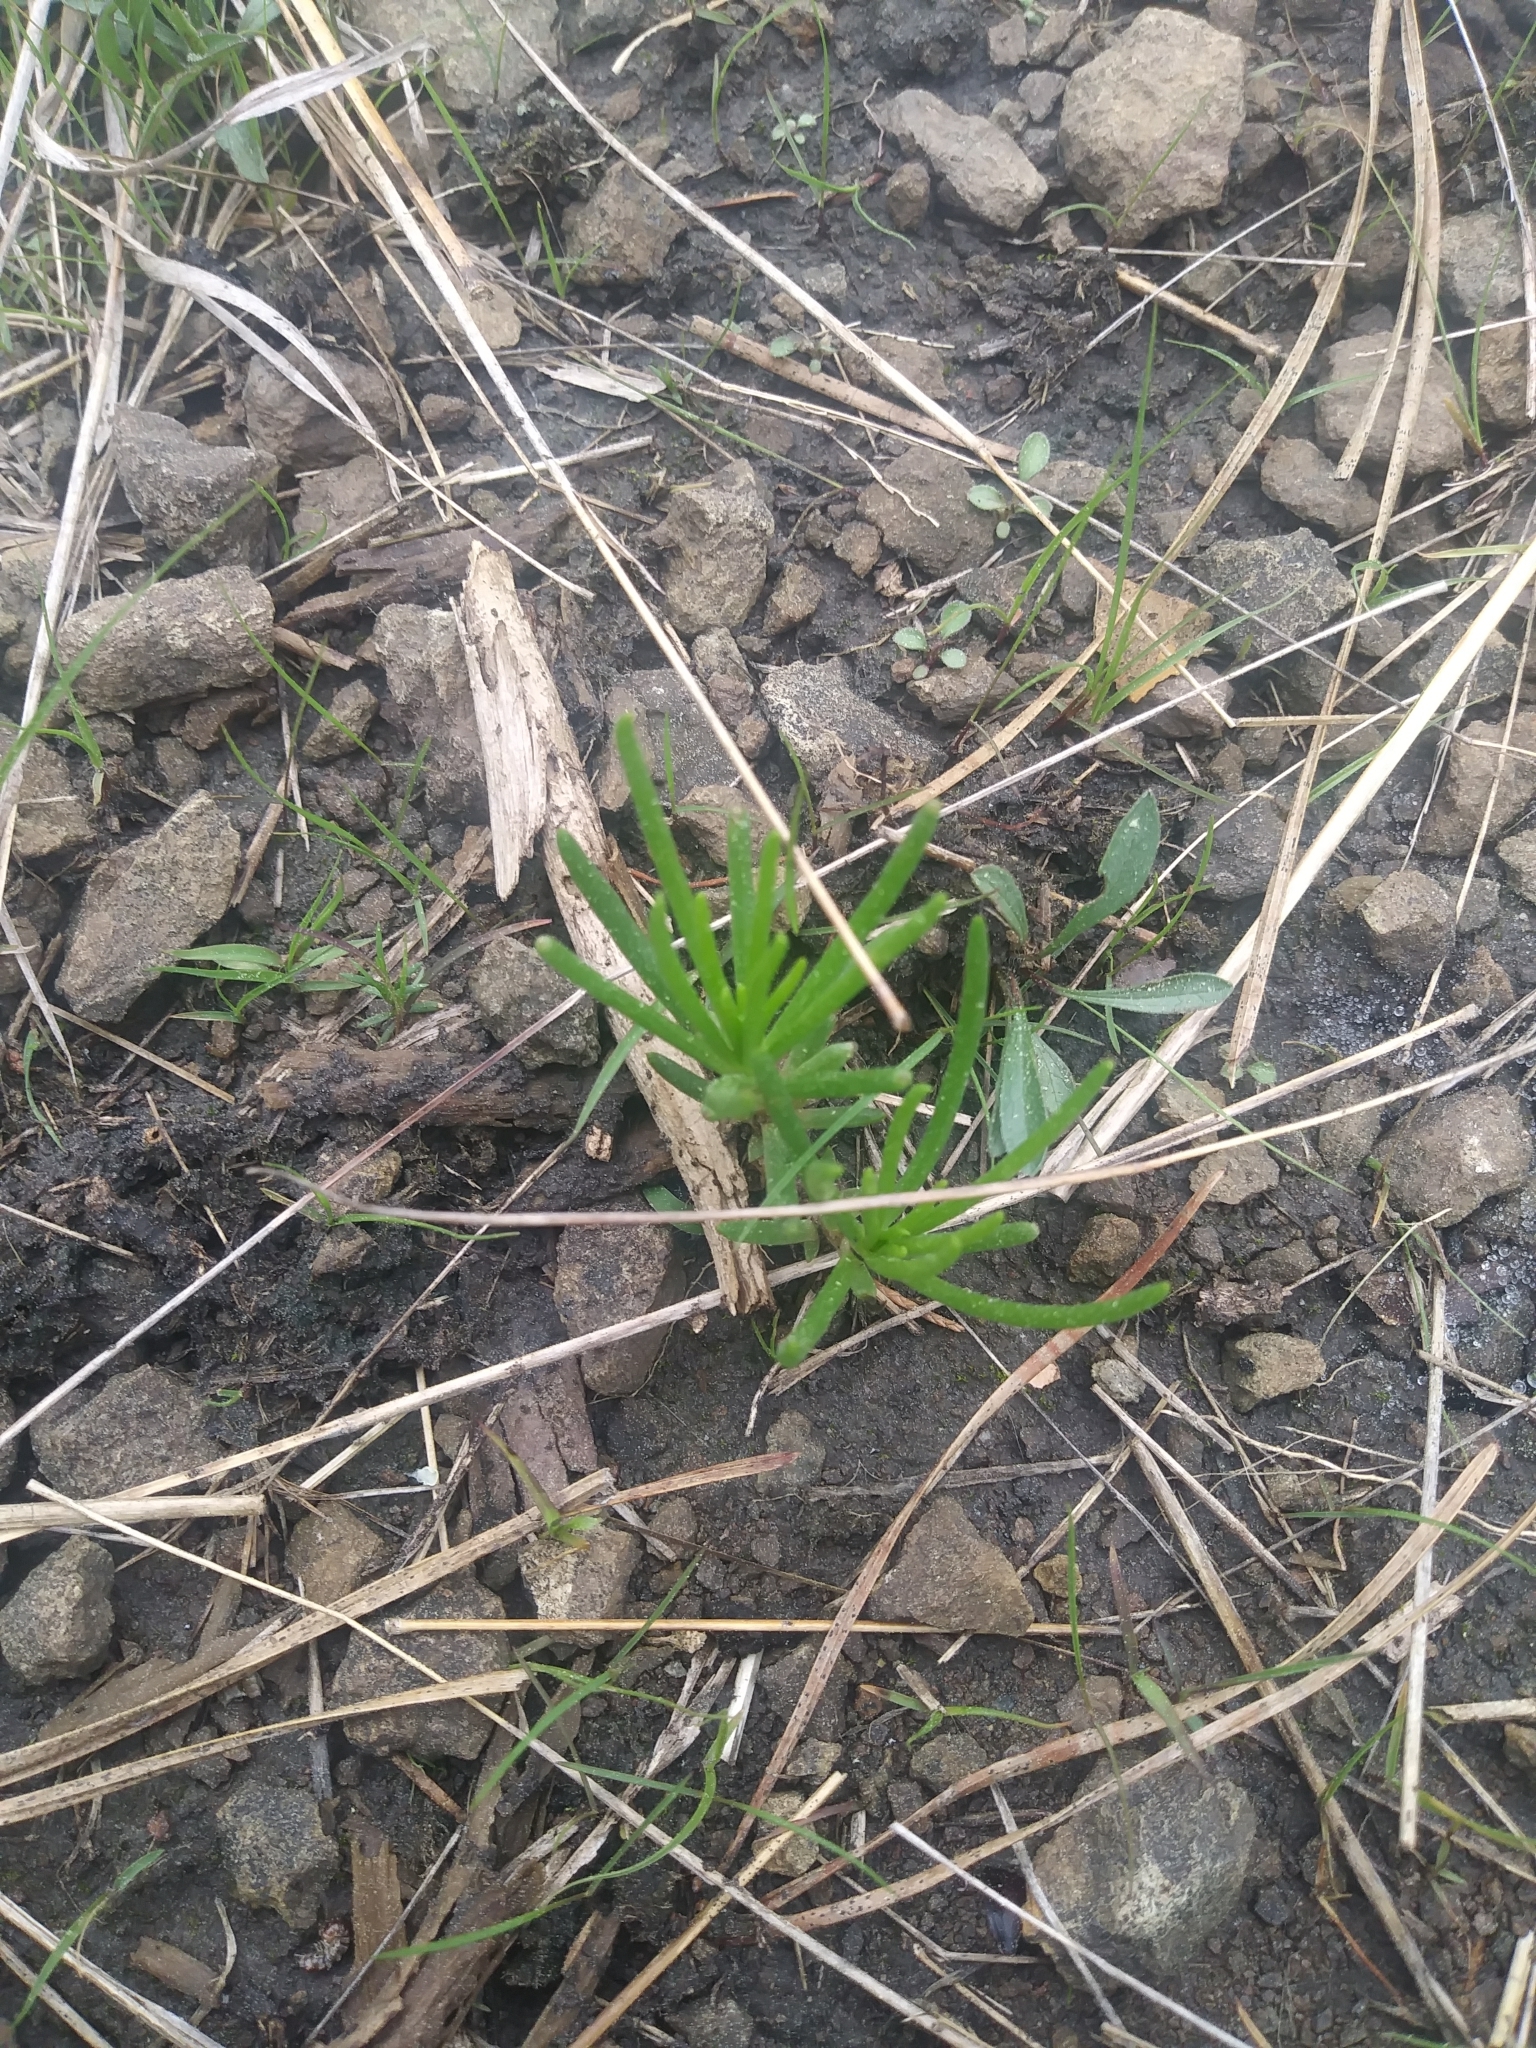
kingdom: Plantae
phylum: Tracheophyta
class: Magnoliopsida
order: Caryophyllales
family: Montiaceae
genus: Phemeranthus
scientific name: Phemeranthus teretifolius
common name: Quill fameflower
